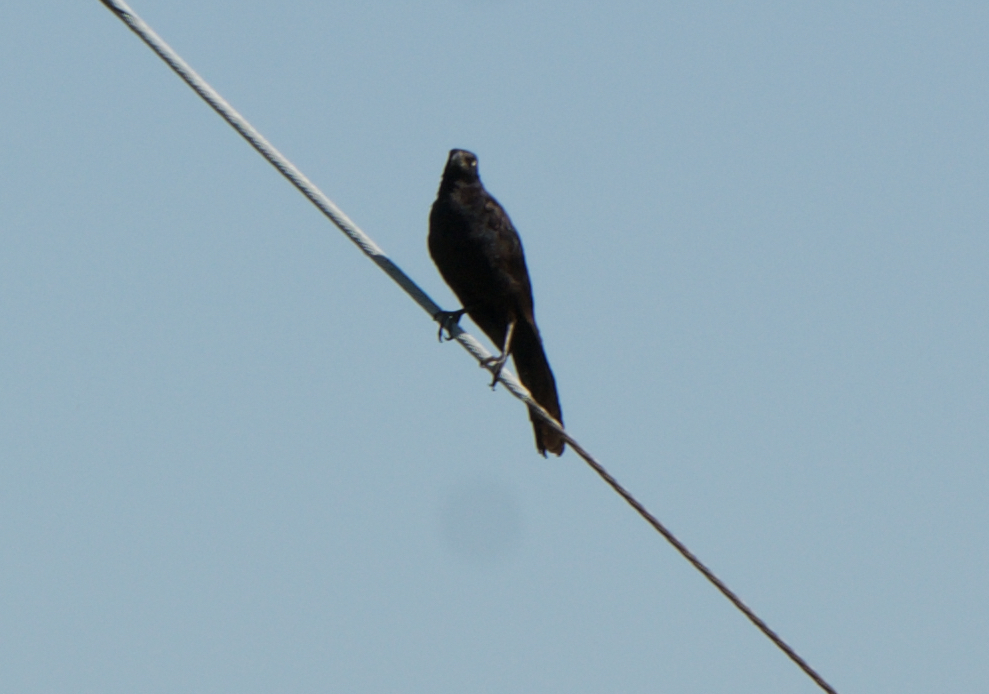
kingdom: Animalia
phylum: Chordata
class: Aves
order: Passeriformes
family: Icteridae
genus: Quiscalus
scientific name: Quiscalus mexicanus
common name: Great-tailed grackle
